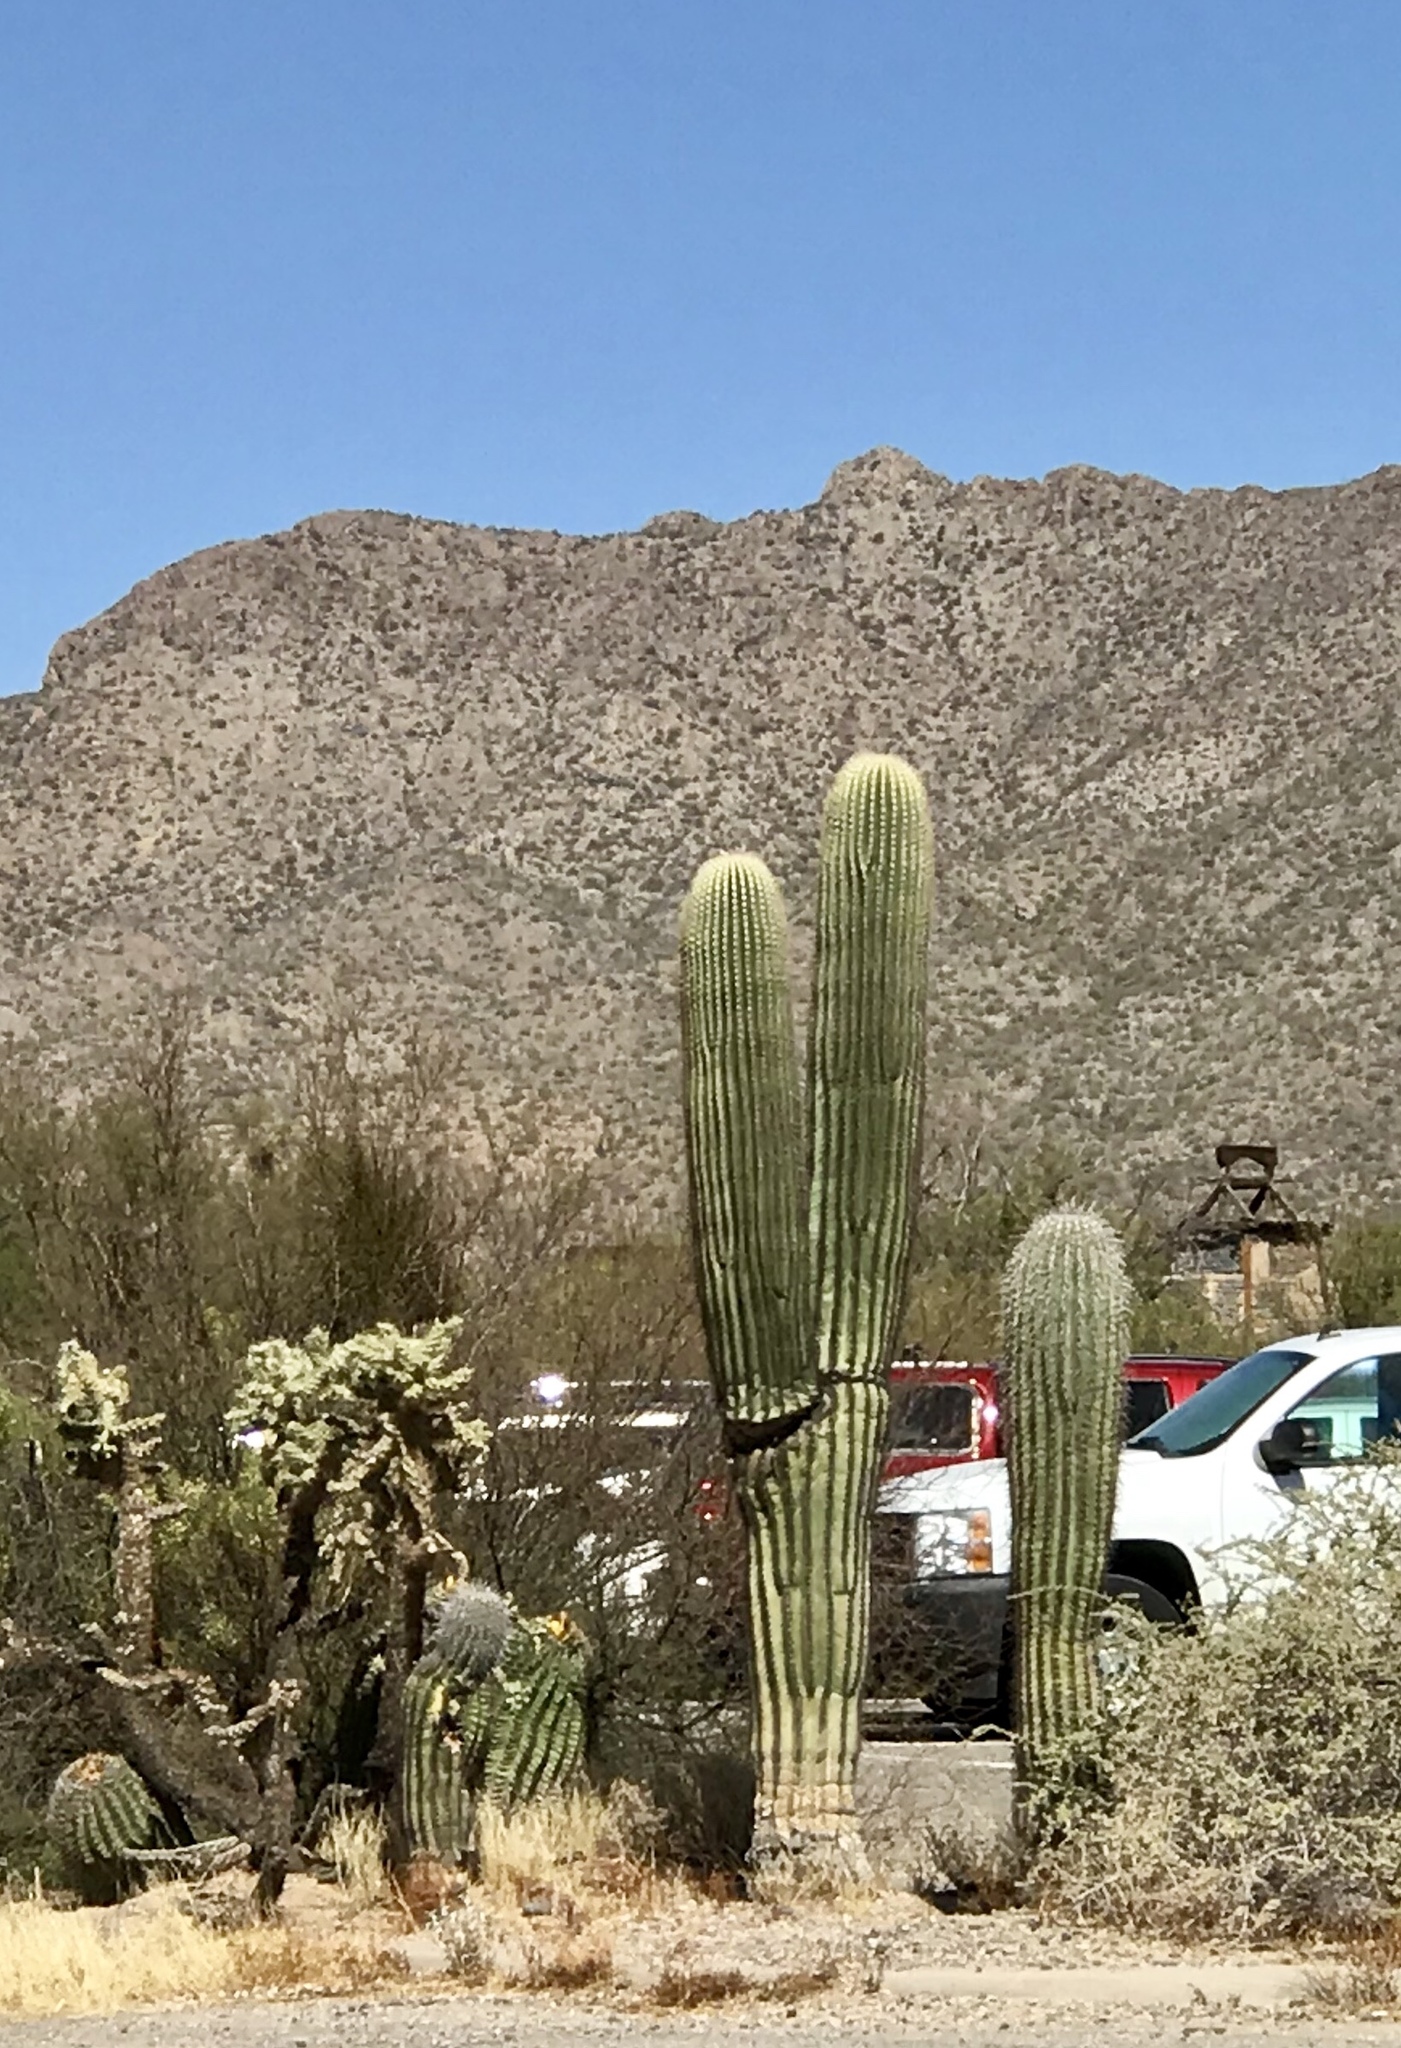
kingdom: Plantae
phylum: Tracheophyta
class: Magnoliopsida
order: Caryophyllales
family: Cactaceae
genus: Carnegiea
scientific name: Carnegiea gigantea
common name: Saguaro
